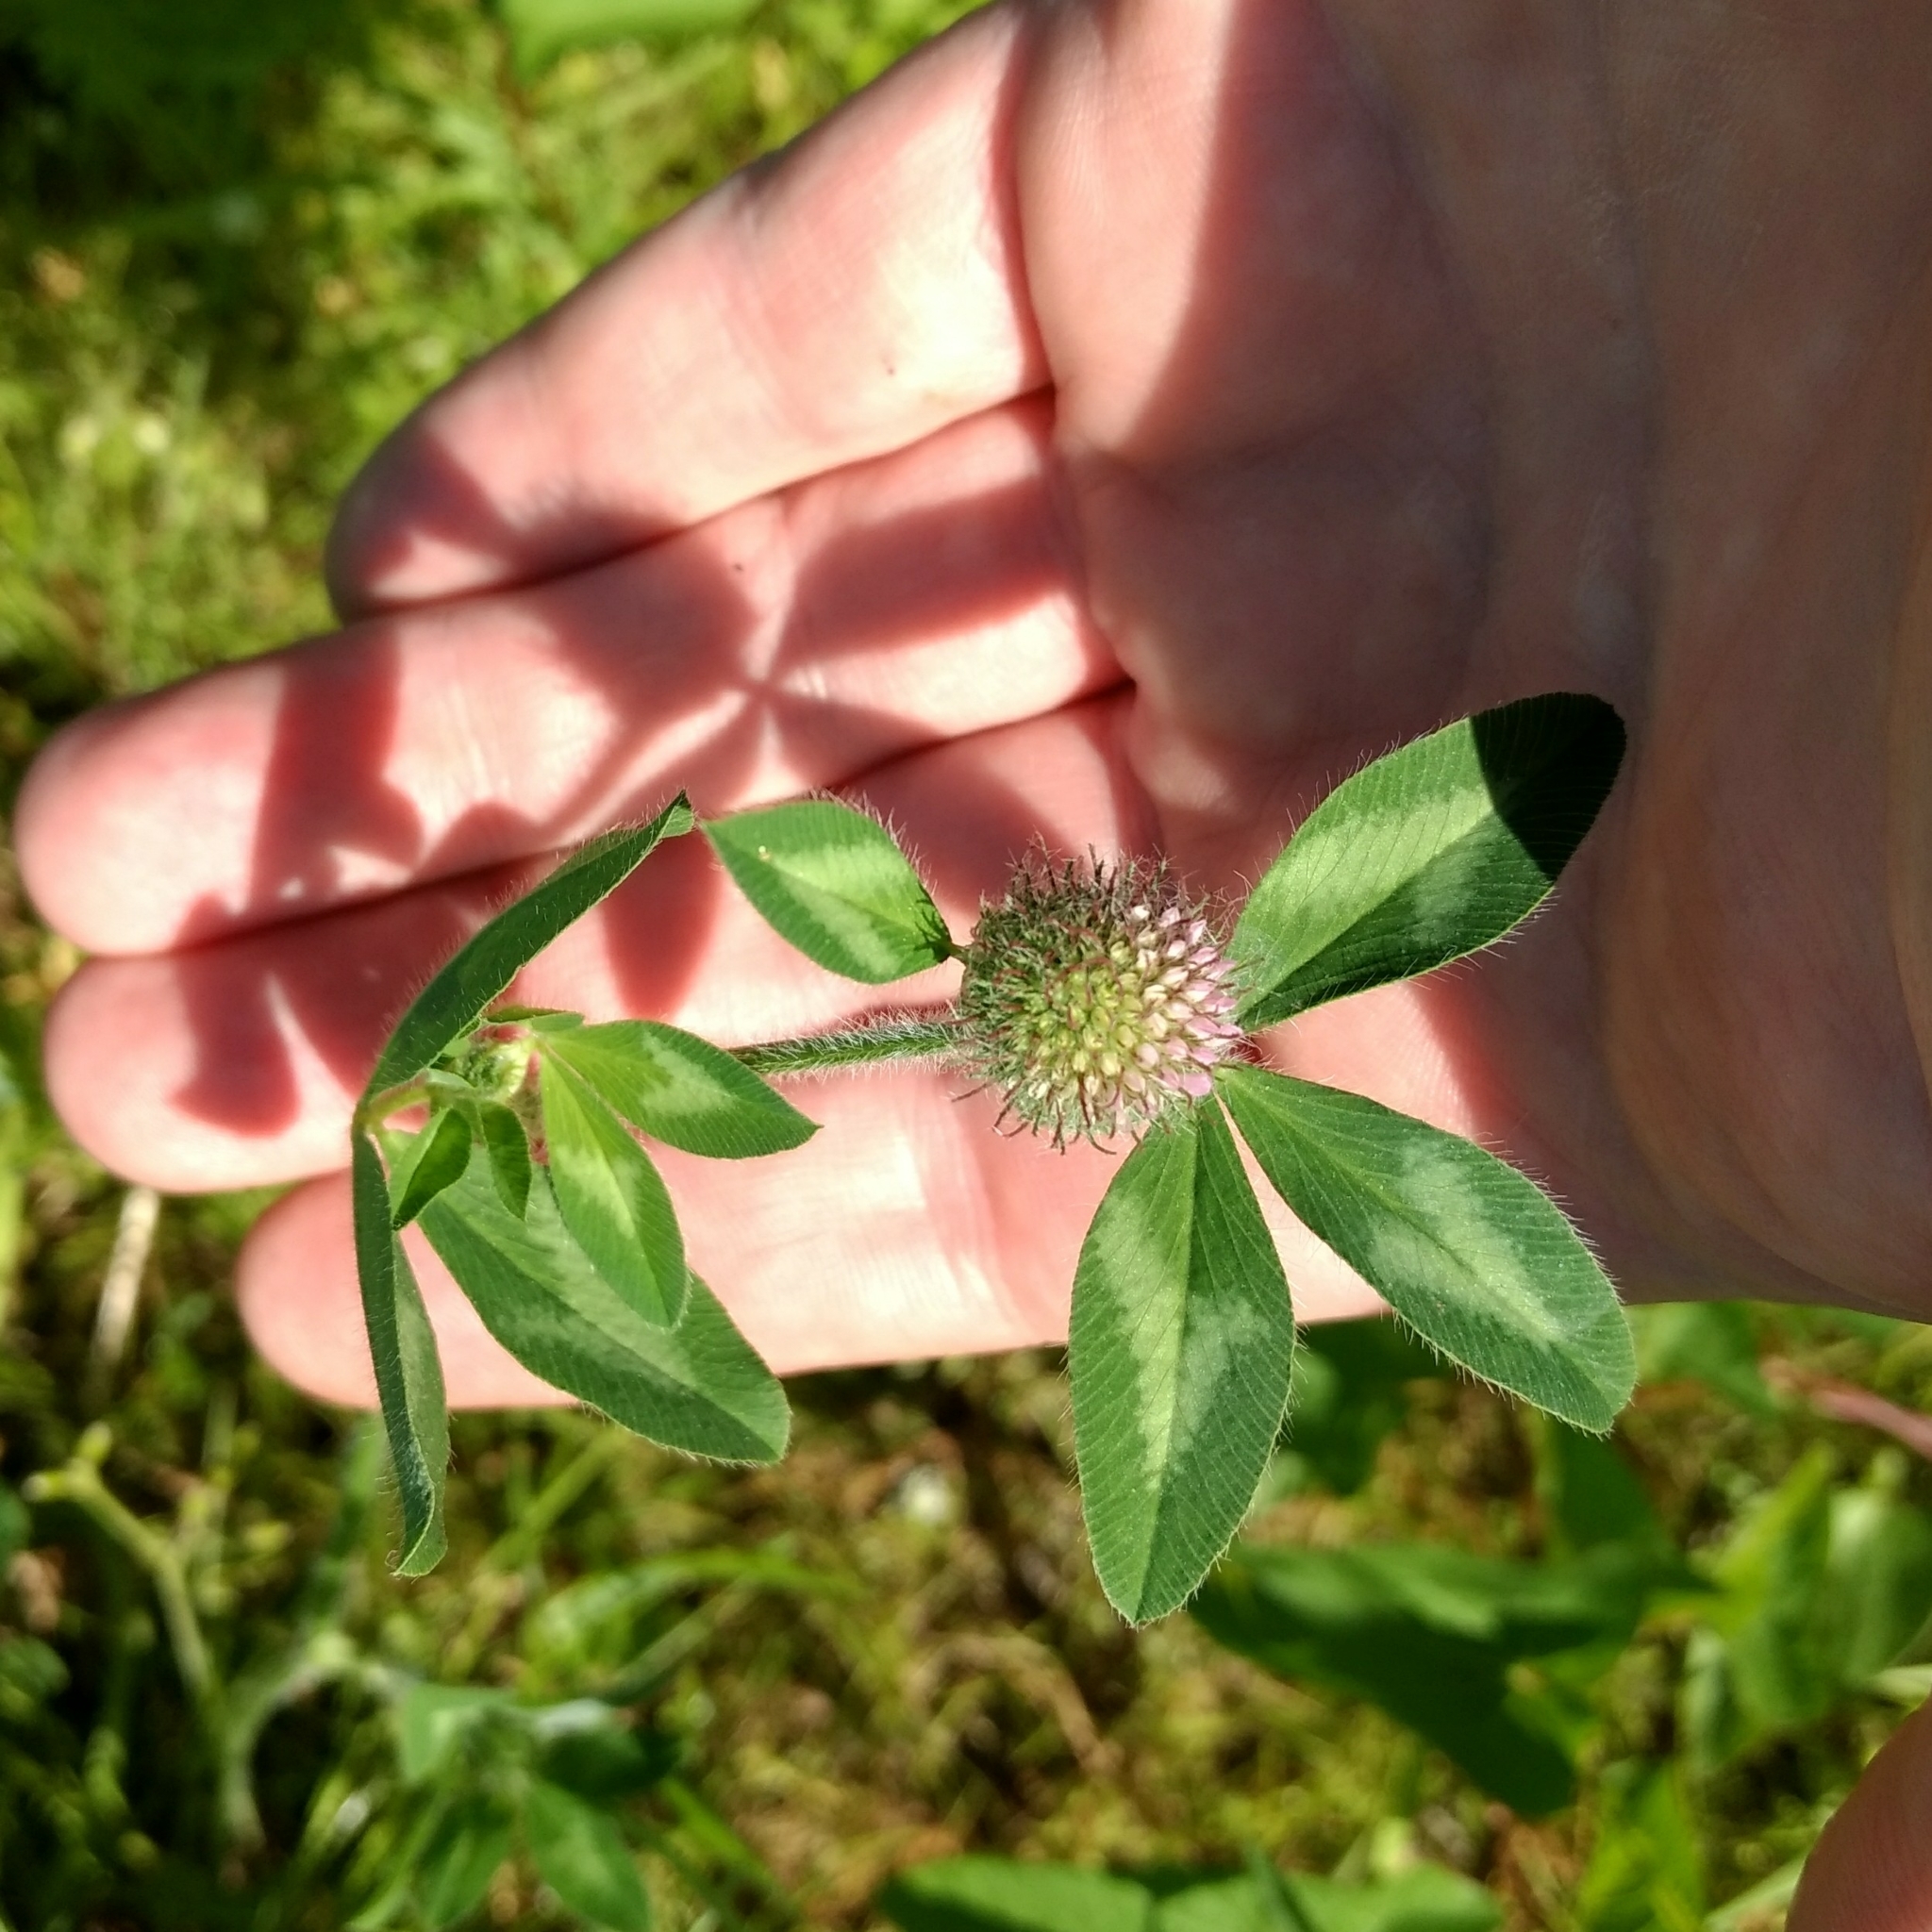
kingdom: Plantae
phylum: Tracheophyta
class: Magnoliopsida
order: Fabales
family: Fabaceae
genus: Trifolium
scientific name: Trifolium pratense
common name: Red clover
